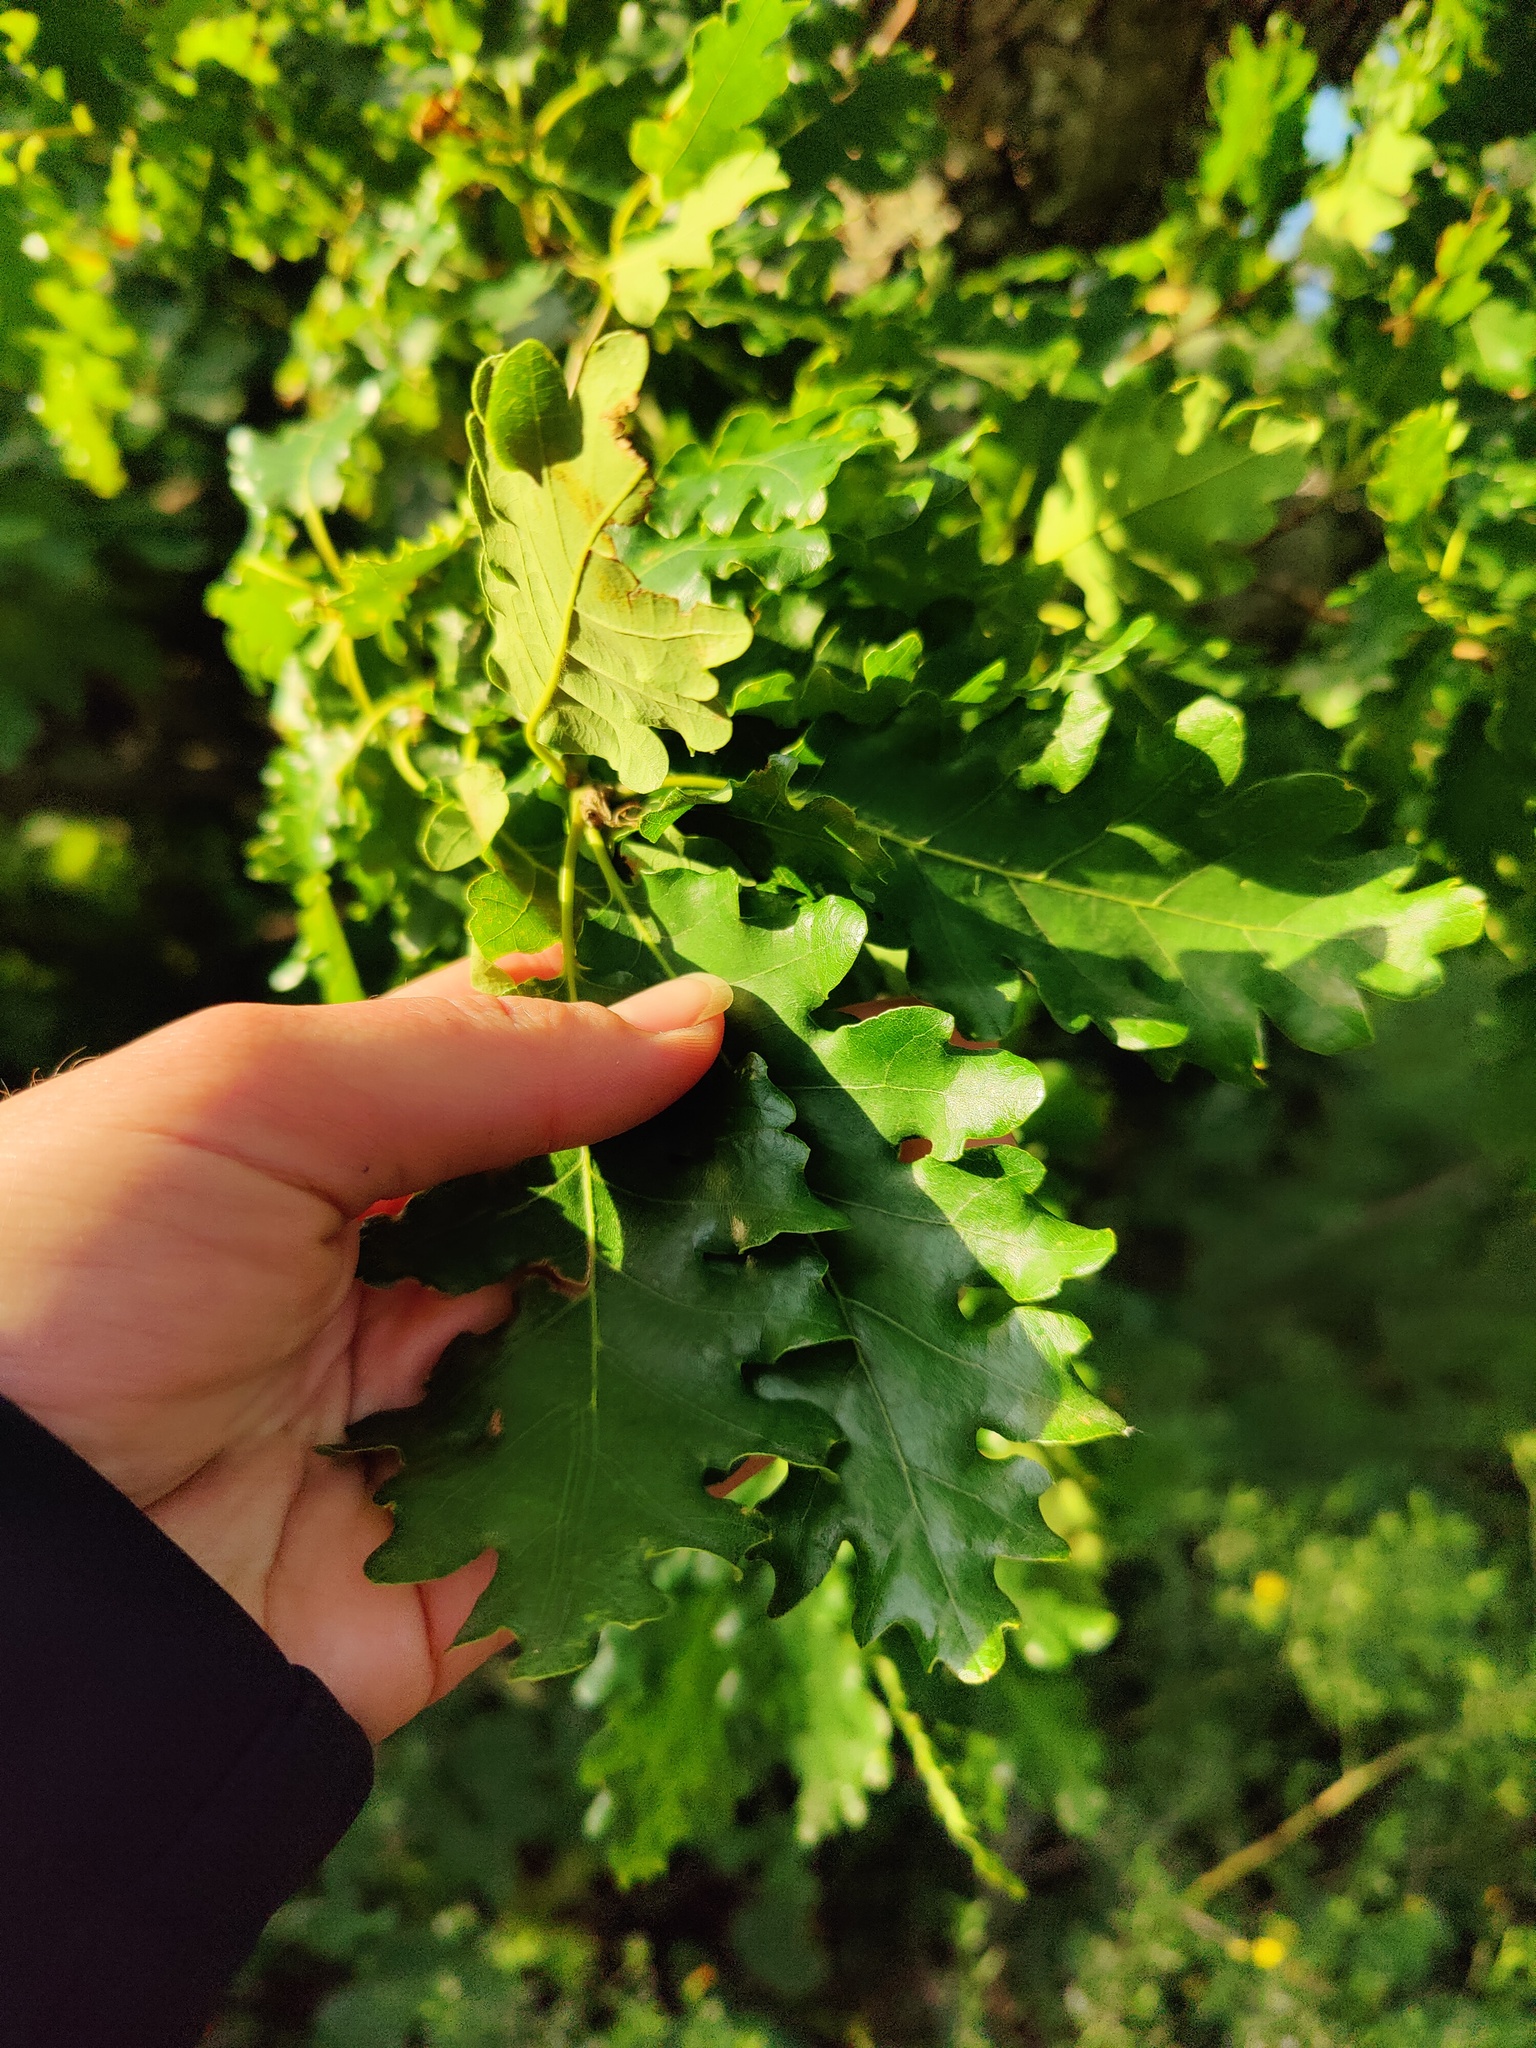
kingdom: Plantae
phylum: Tracheophyta
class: Magnoliopsida
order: Fagales
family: Fagaceae
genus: Quercus
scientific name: Quercus pubescens
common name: Downy oak
